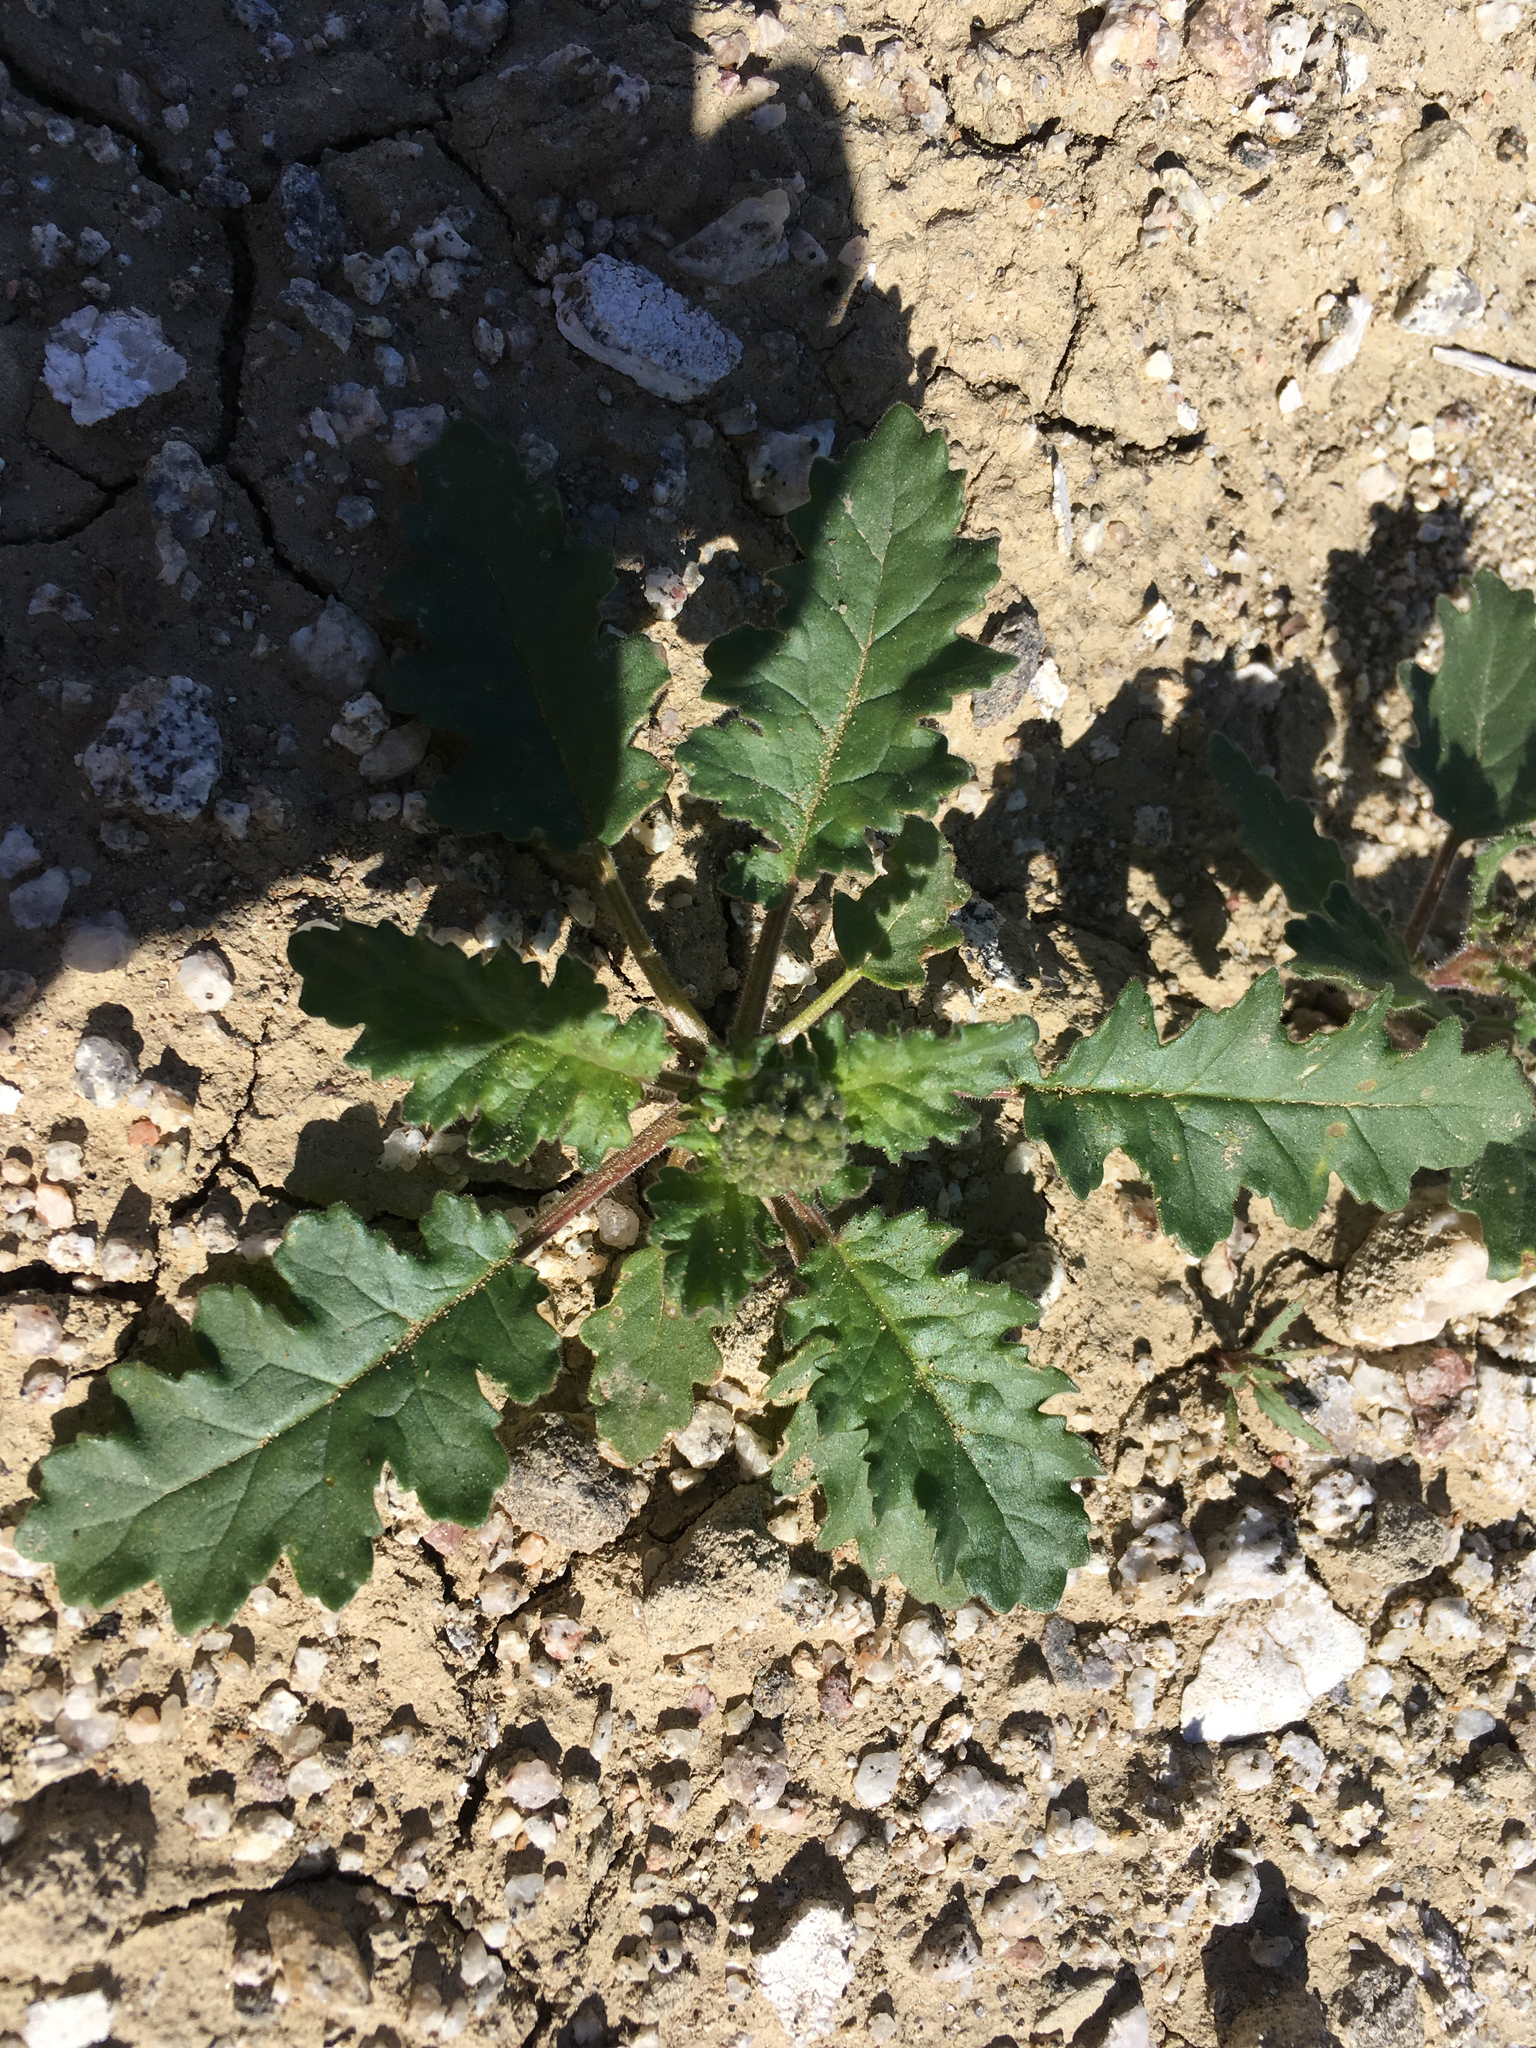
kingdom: Plantae
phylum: Tracheophyta
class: Magnoliopsida
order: Boraginales
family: Hydrophyllaceae
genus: Phacelia
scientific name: Phacelia crenulata
